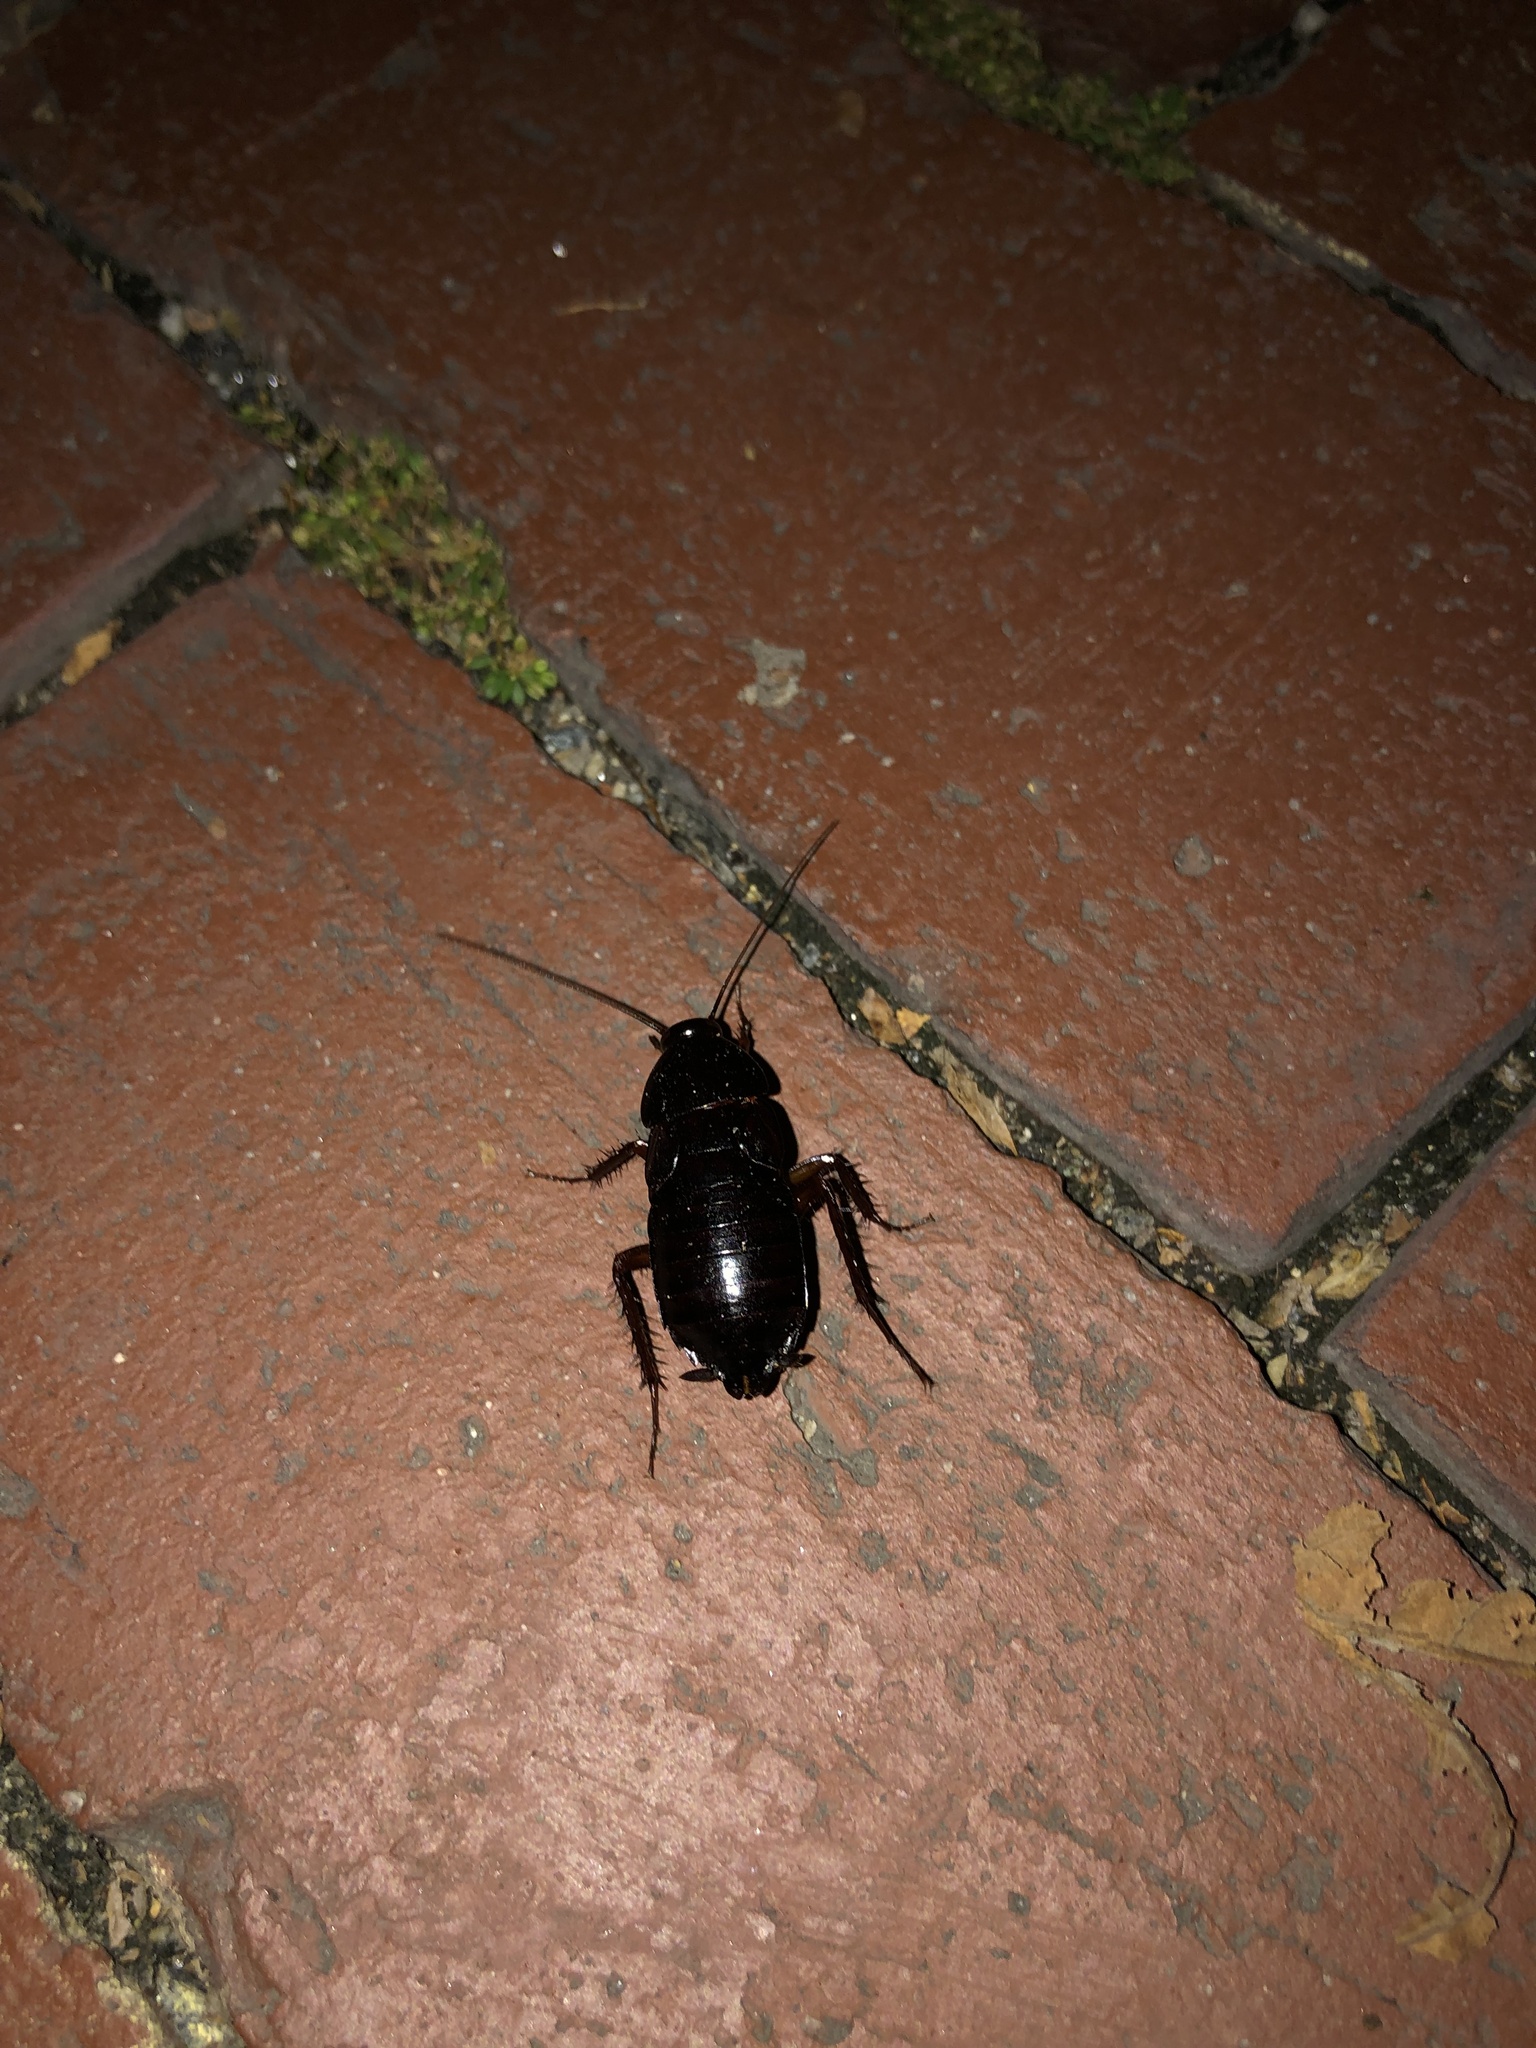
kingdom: Animalia
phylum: Arthropoda
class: Insecta
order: Blattodea
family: Blattidae
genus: Blatta
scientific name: Blatta orientalis
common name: Oriental cockroach
